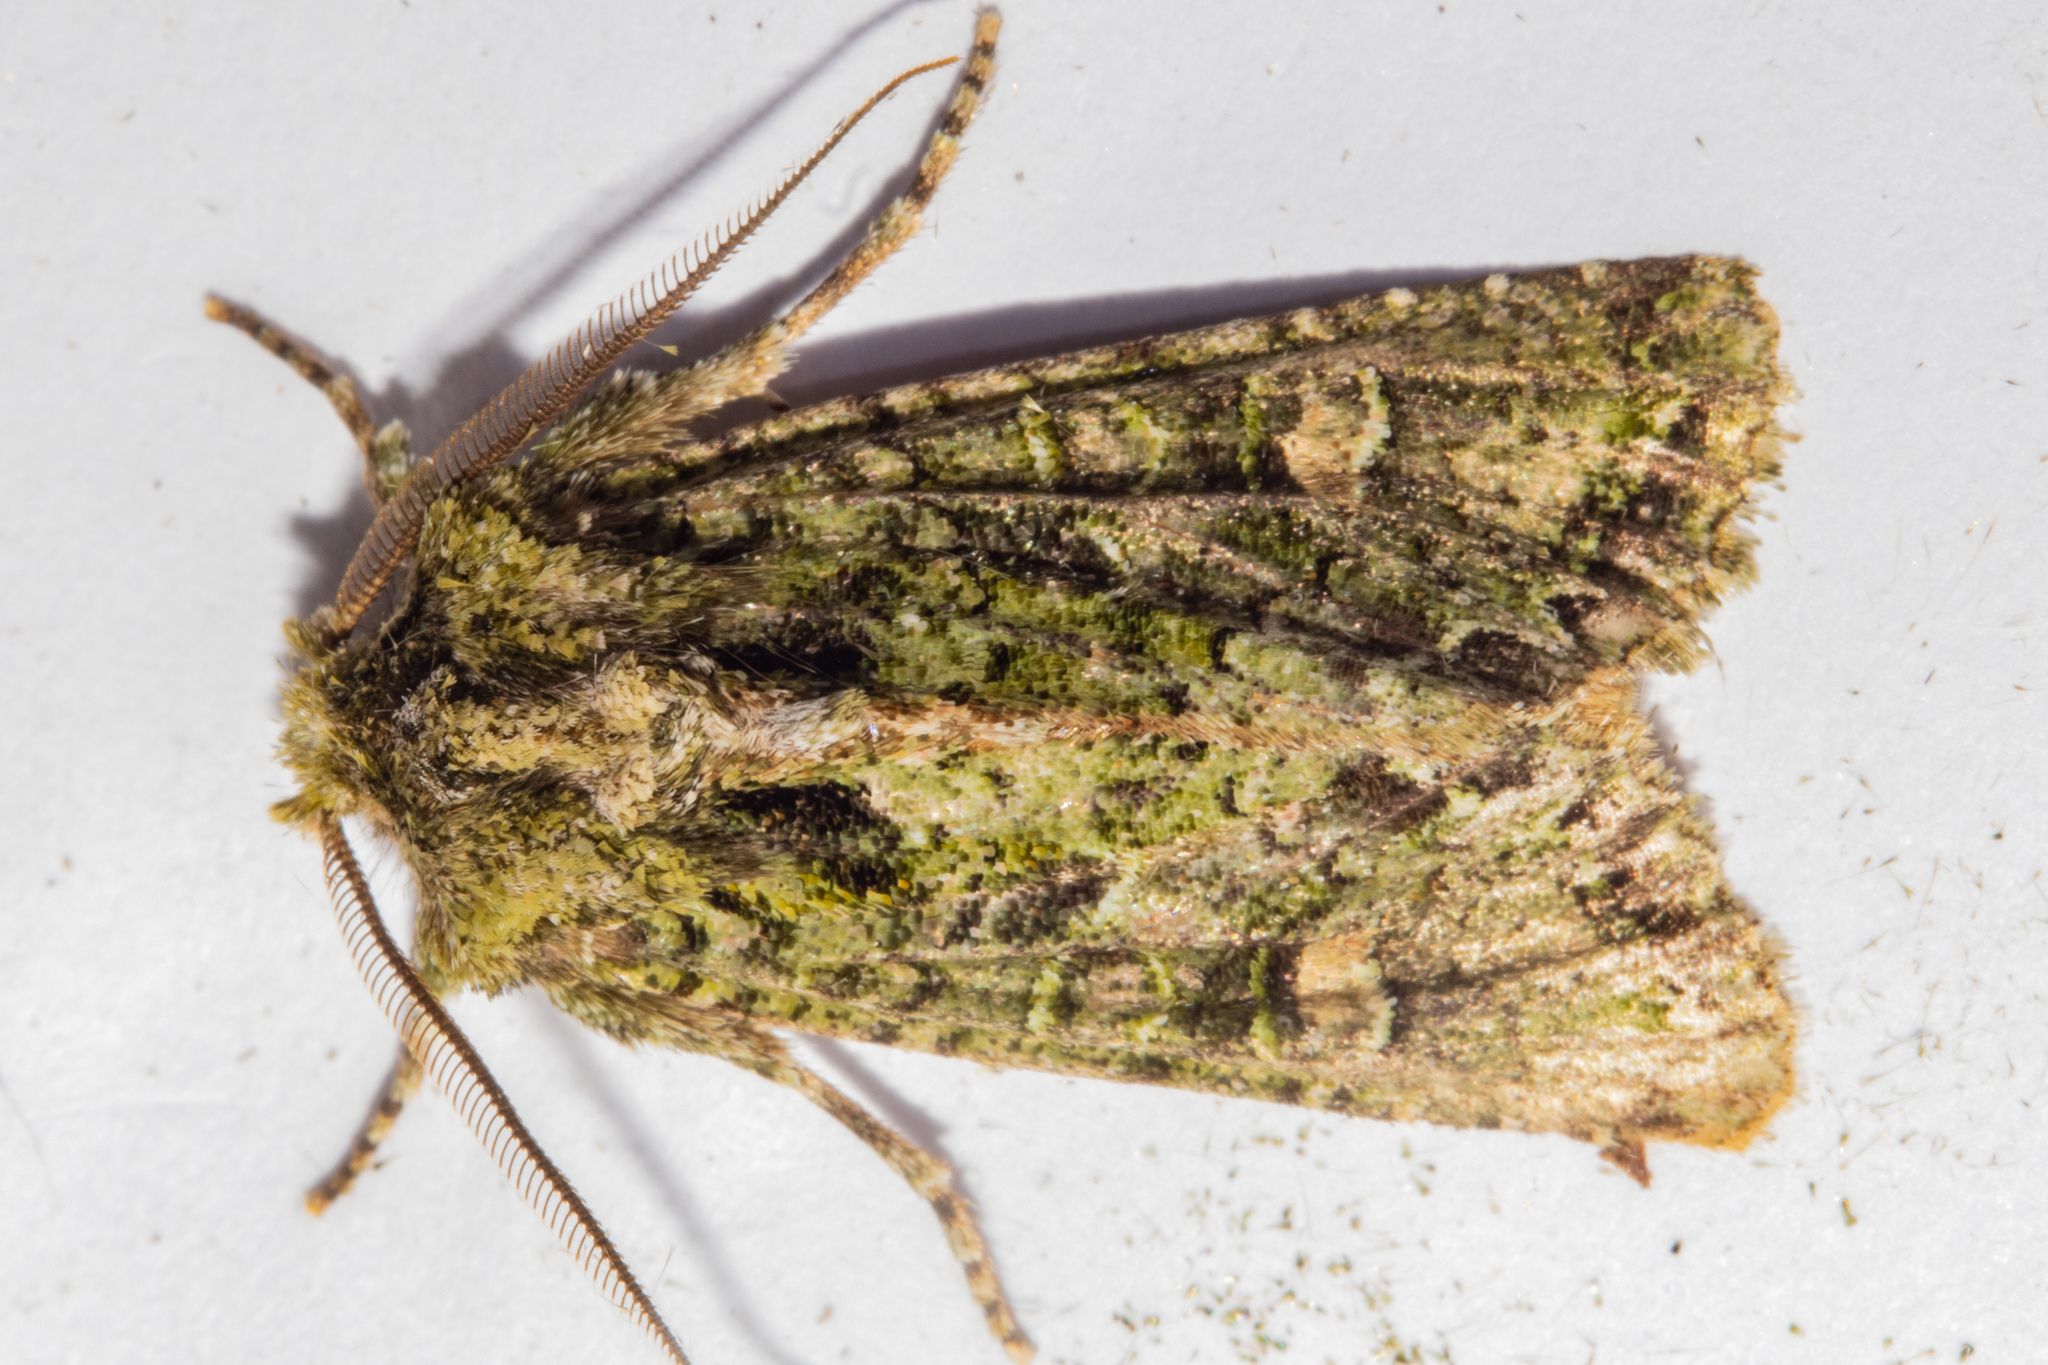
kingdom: Animalia
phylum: Arthropoda
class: Insecta
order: Lepidoptera
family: Noctuidae
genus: Ichneutica
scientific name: Ichneutica
